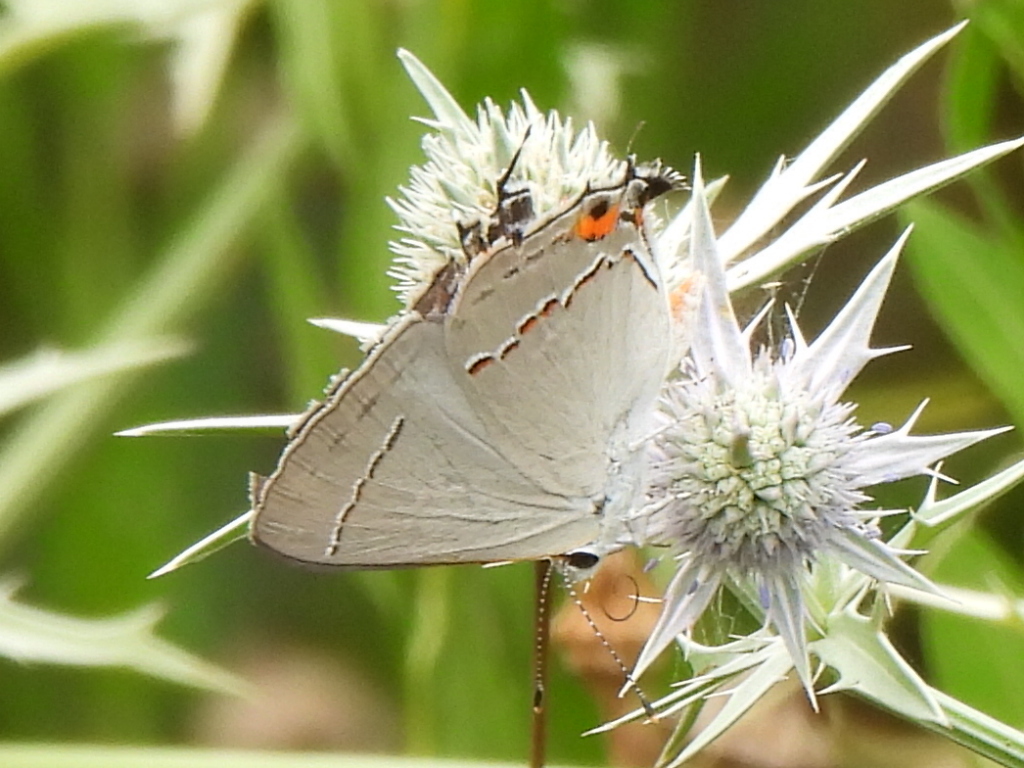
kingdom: Animalia
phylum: Arthropoda
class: Insecta
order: Lepidoptera
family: Lycaenidae
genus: Strymon
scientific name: Strymon melinus
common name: Gray hairstreak
